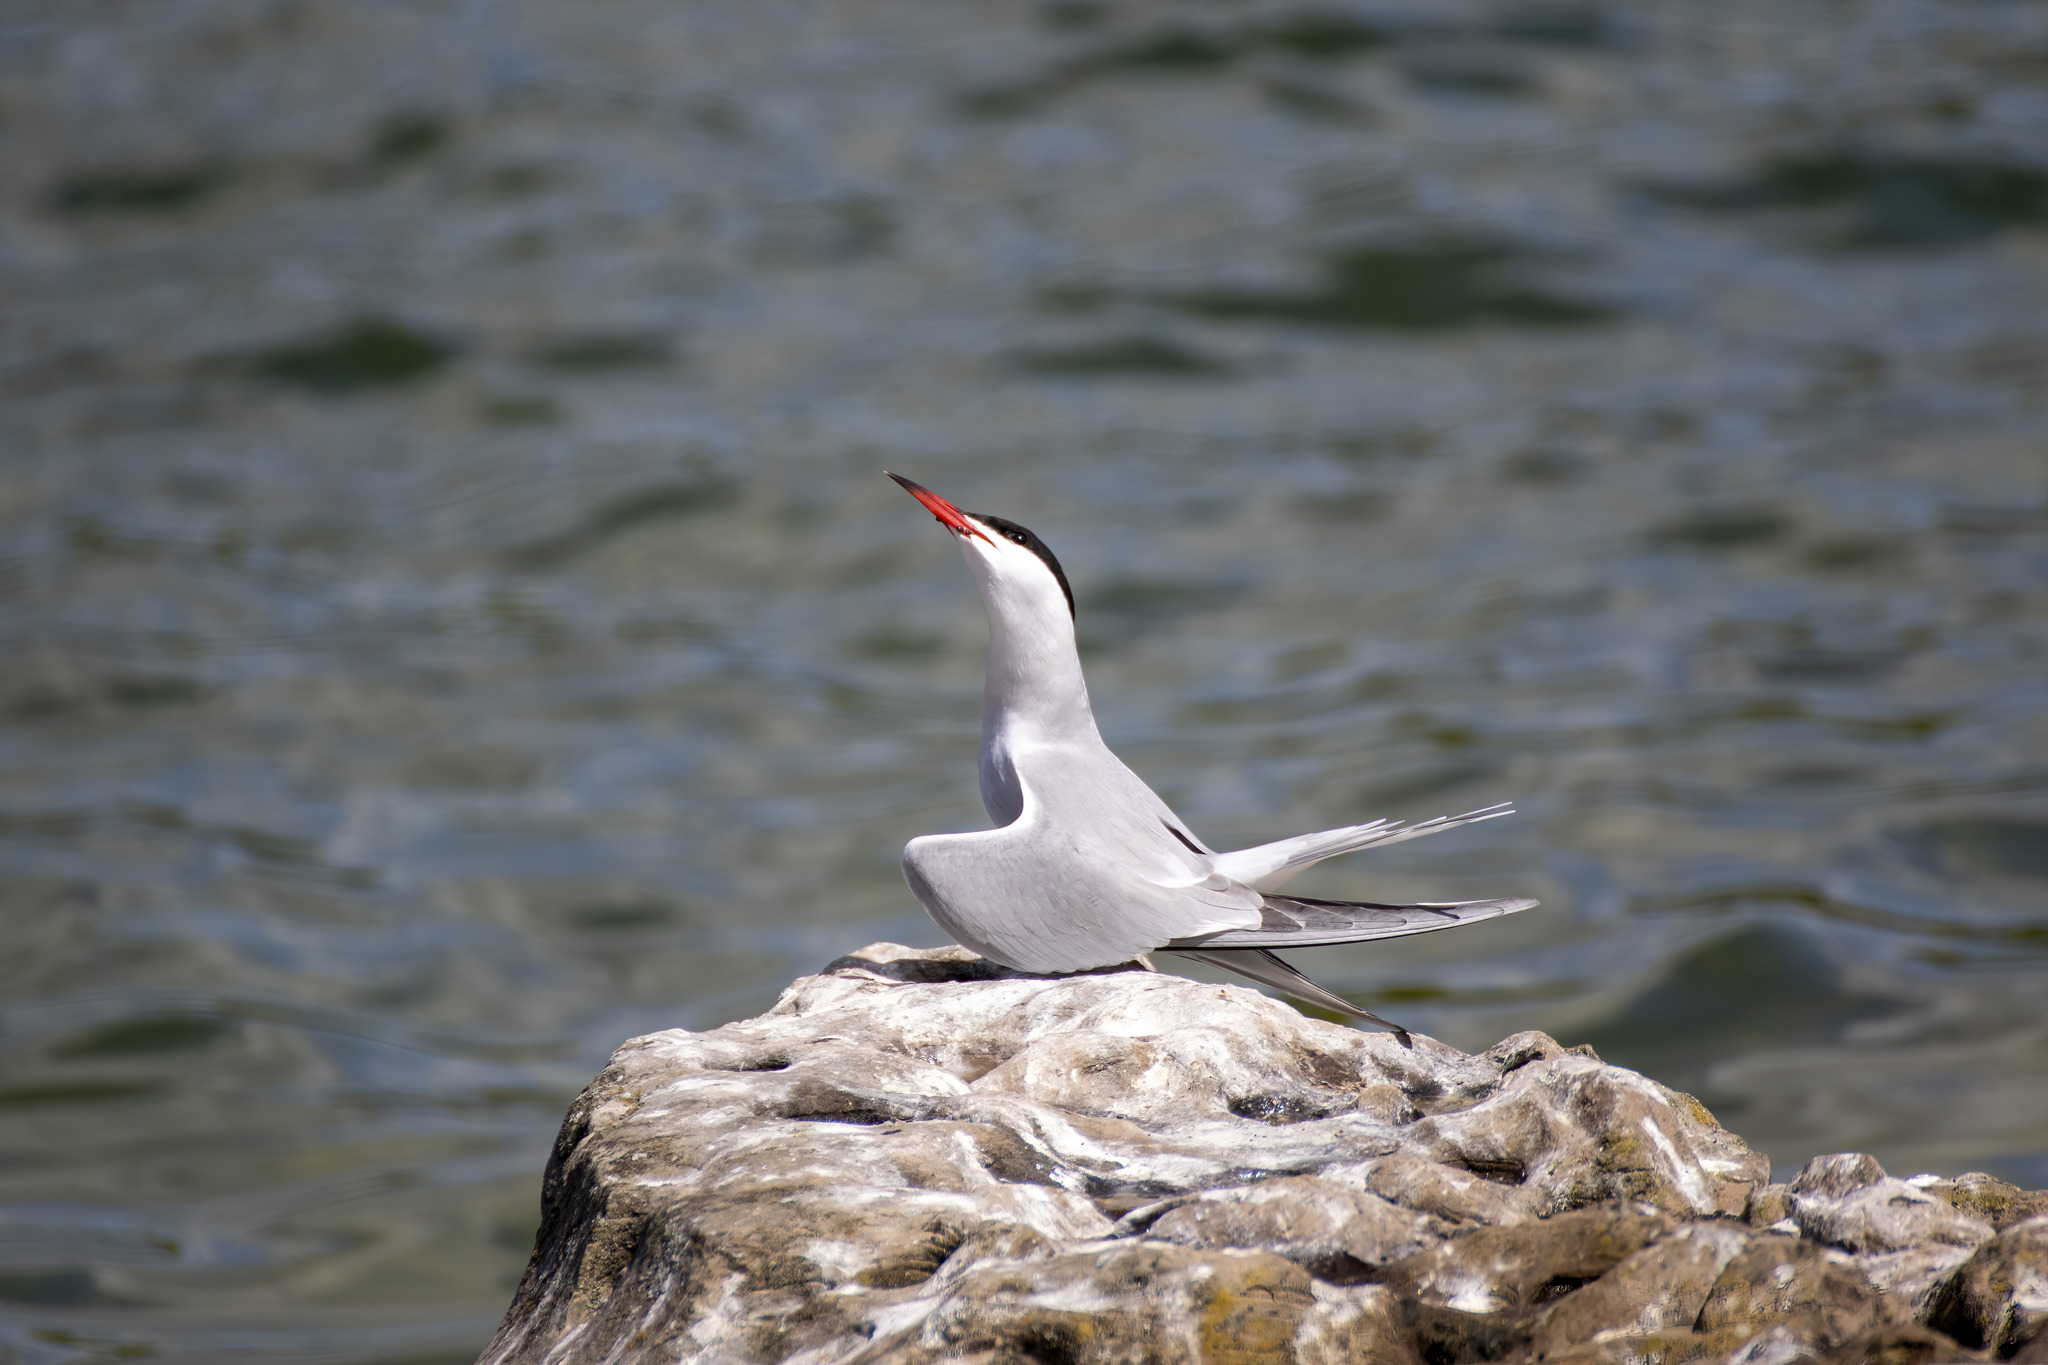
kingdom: Animalia
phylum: Chordata
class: Aves
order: Charadriiformes
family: Laridae
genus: Sterna
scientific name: Sterna hirundo
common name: Common tern
